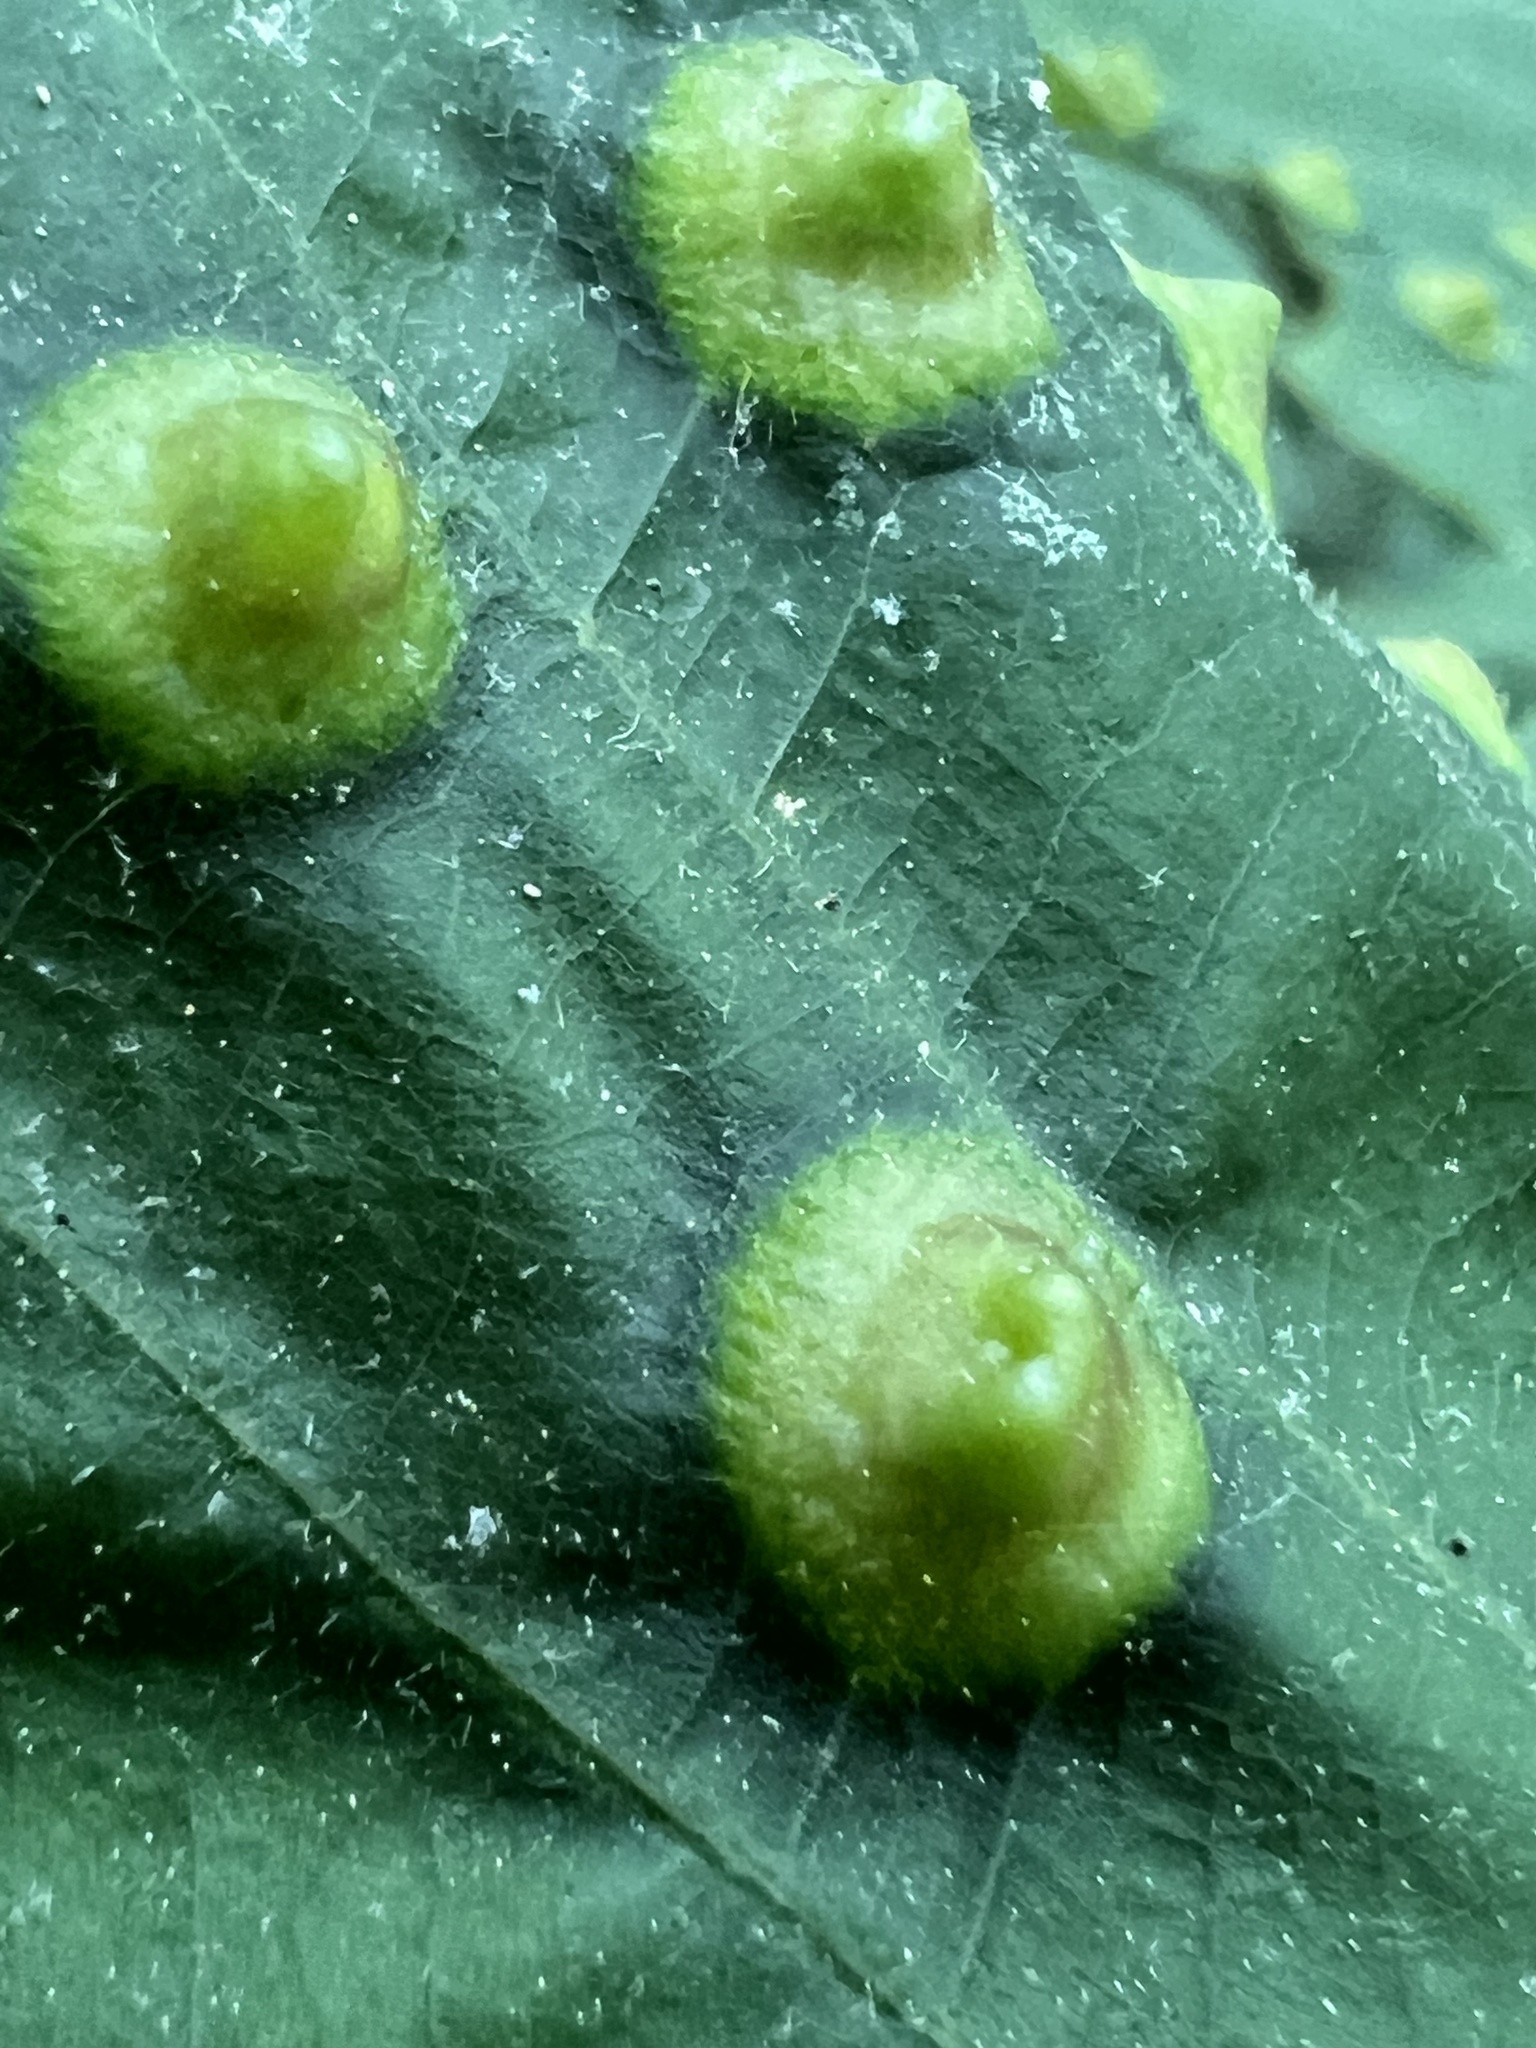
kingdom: Animalia
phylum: Arthropoda
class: Insecta
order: Hymenoptera
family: Cynipidae
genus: Callirhytis
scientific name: Callirhytis
